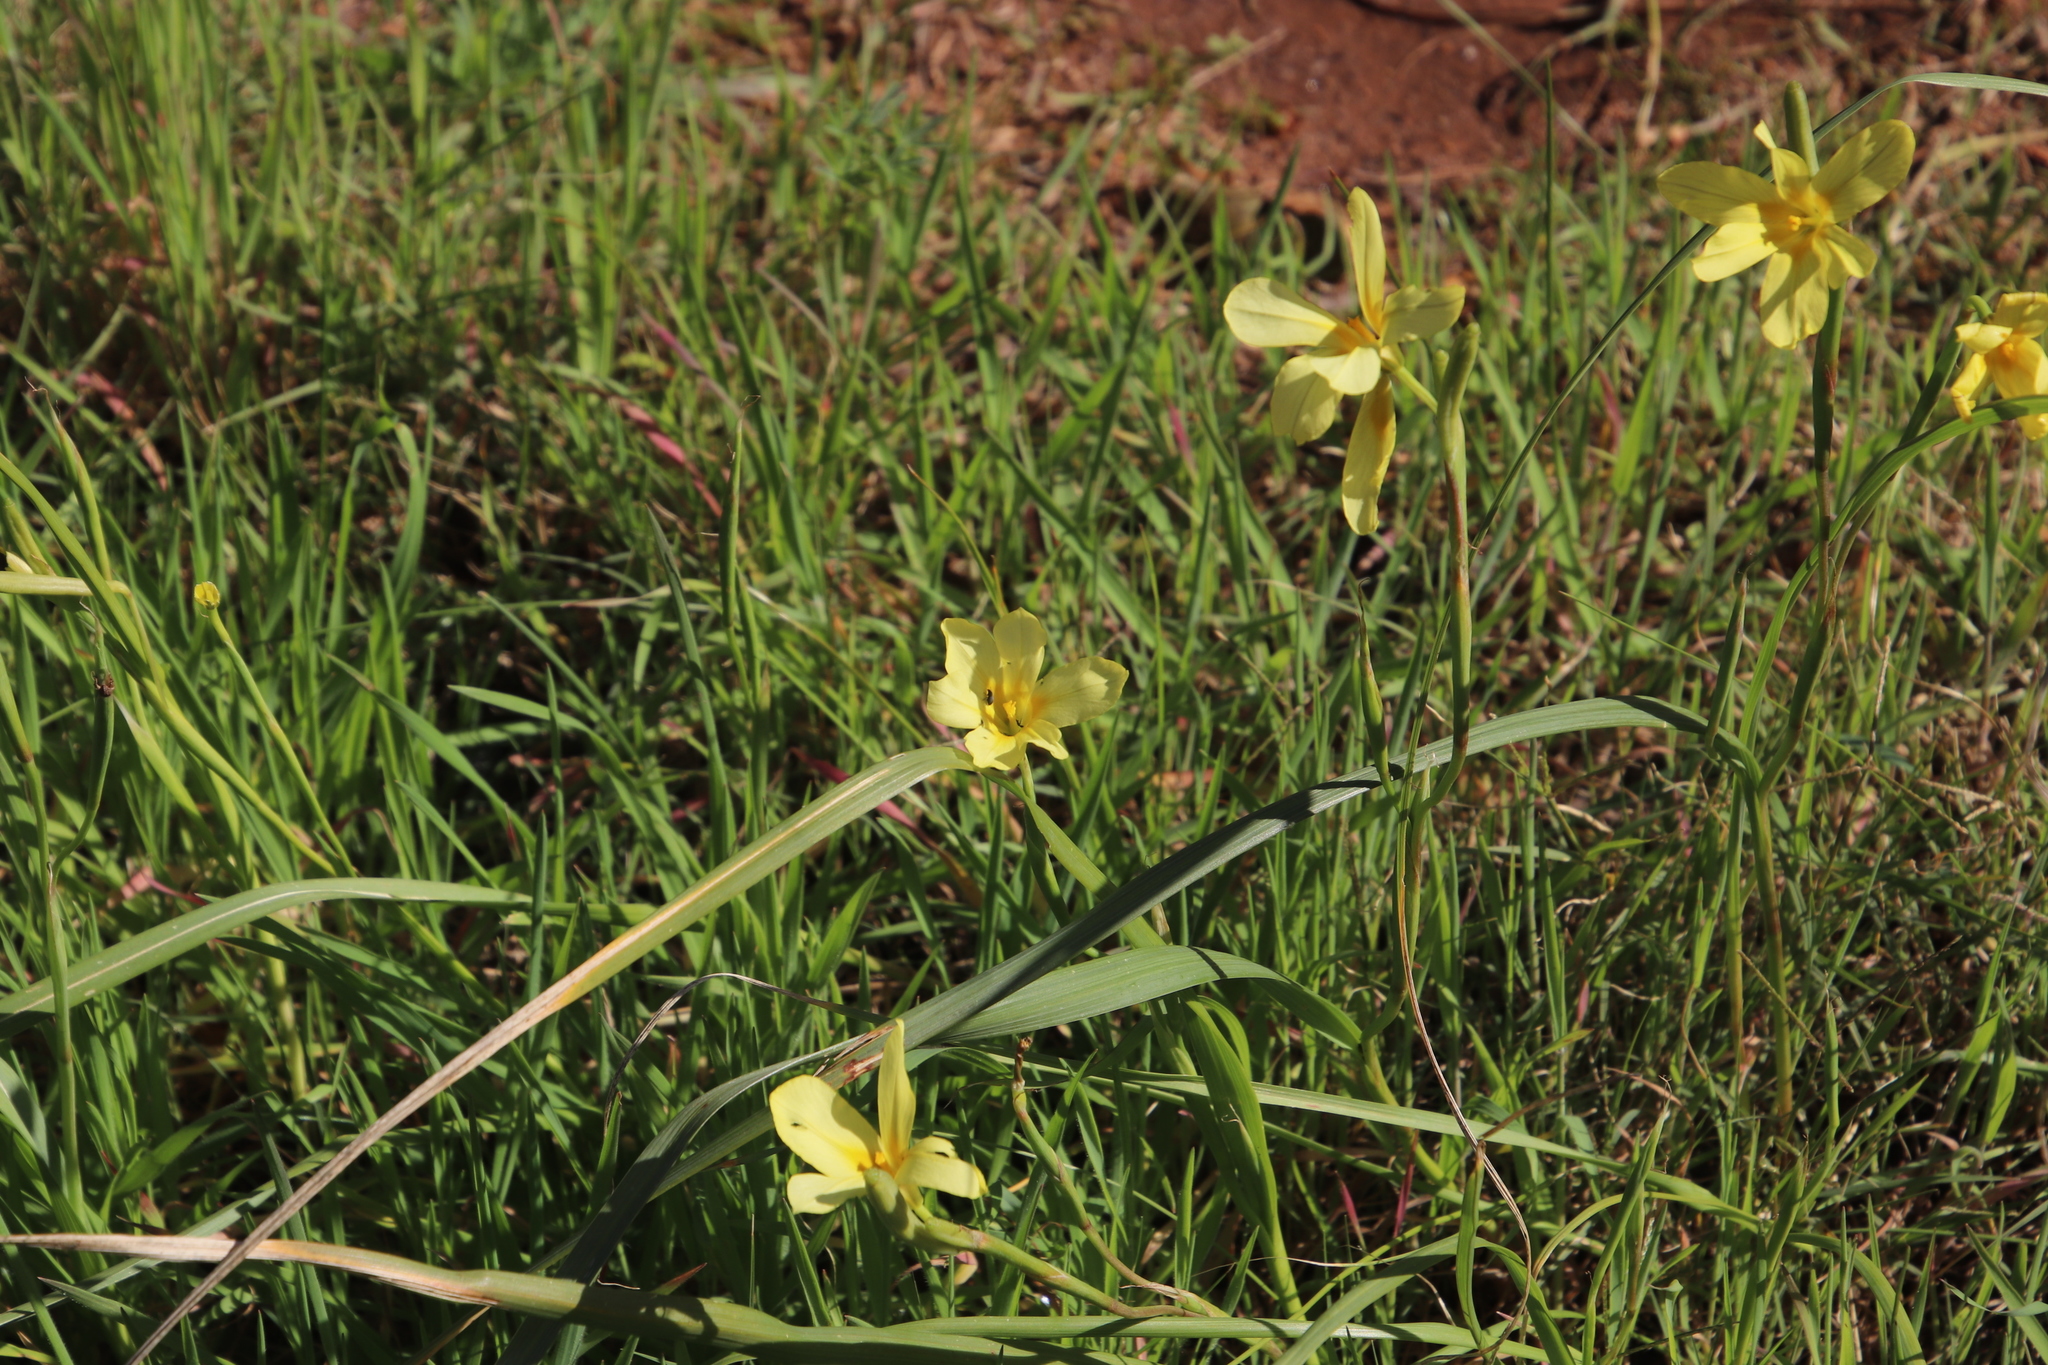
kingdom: Plantae
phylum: Tracheophyta
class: Liliopsida
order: Asparagales
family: Iridaceae
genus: Moraea
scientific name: Moraea collina
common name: Cape-tulip
